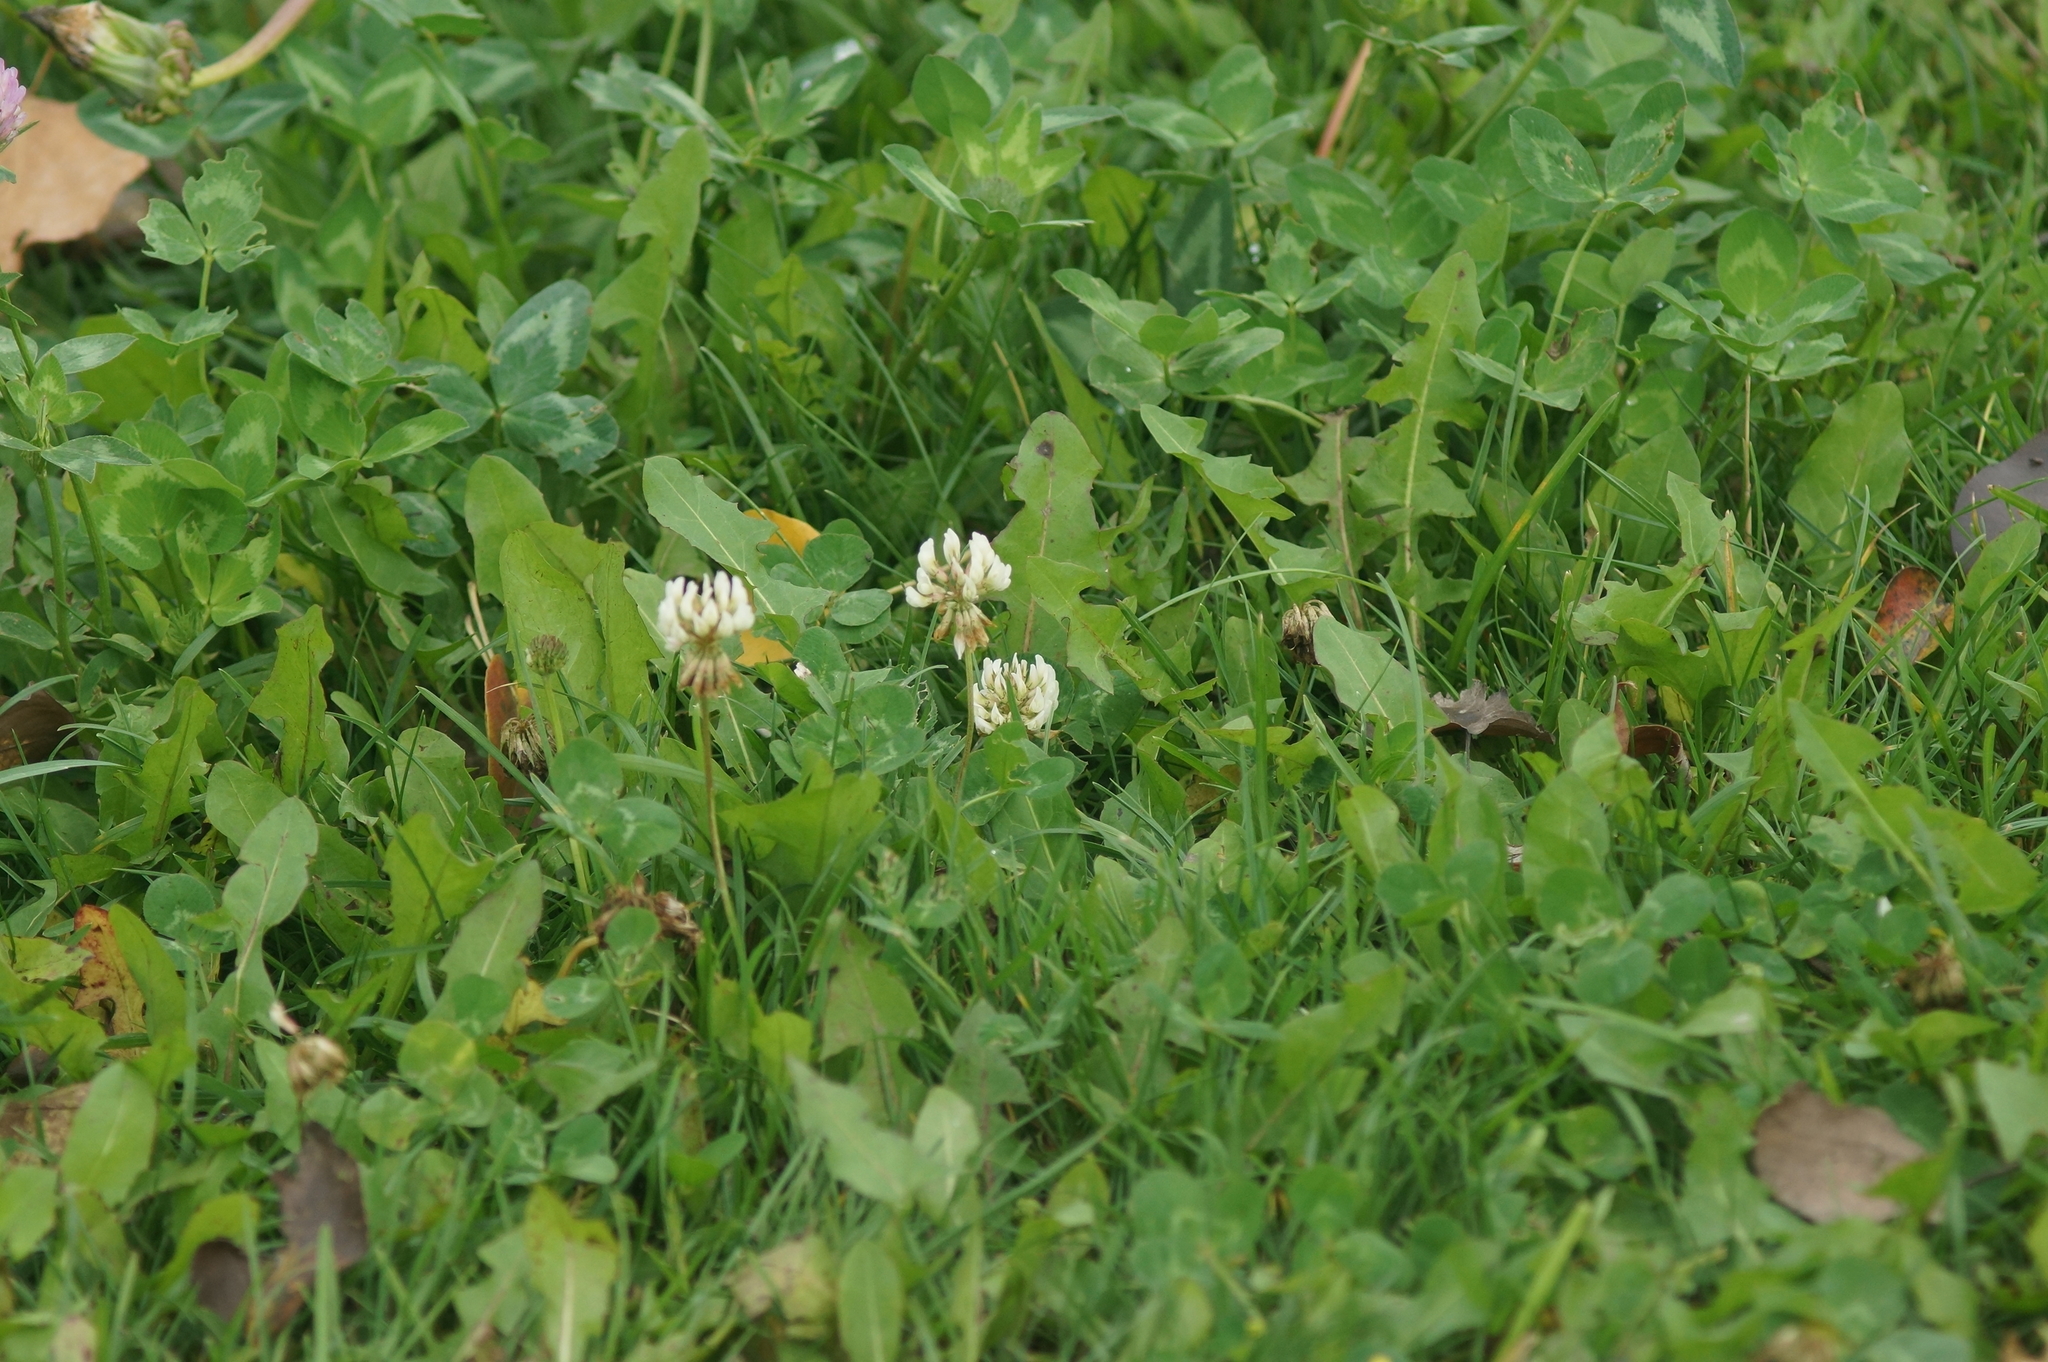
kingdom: Plantae
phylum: Tracheophyta
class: Magnoliopsida
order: Fabales
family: Fabaceae
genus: Trifolium
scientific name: Trifolium repens
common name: White clover
